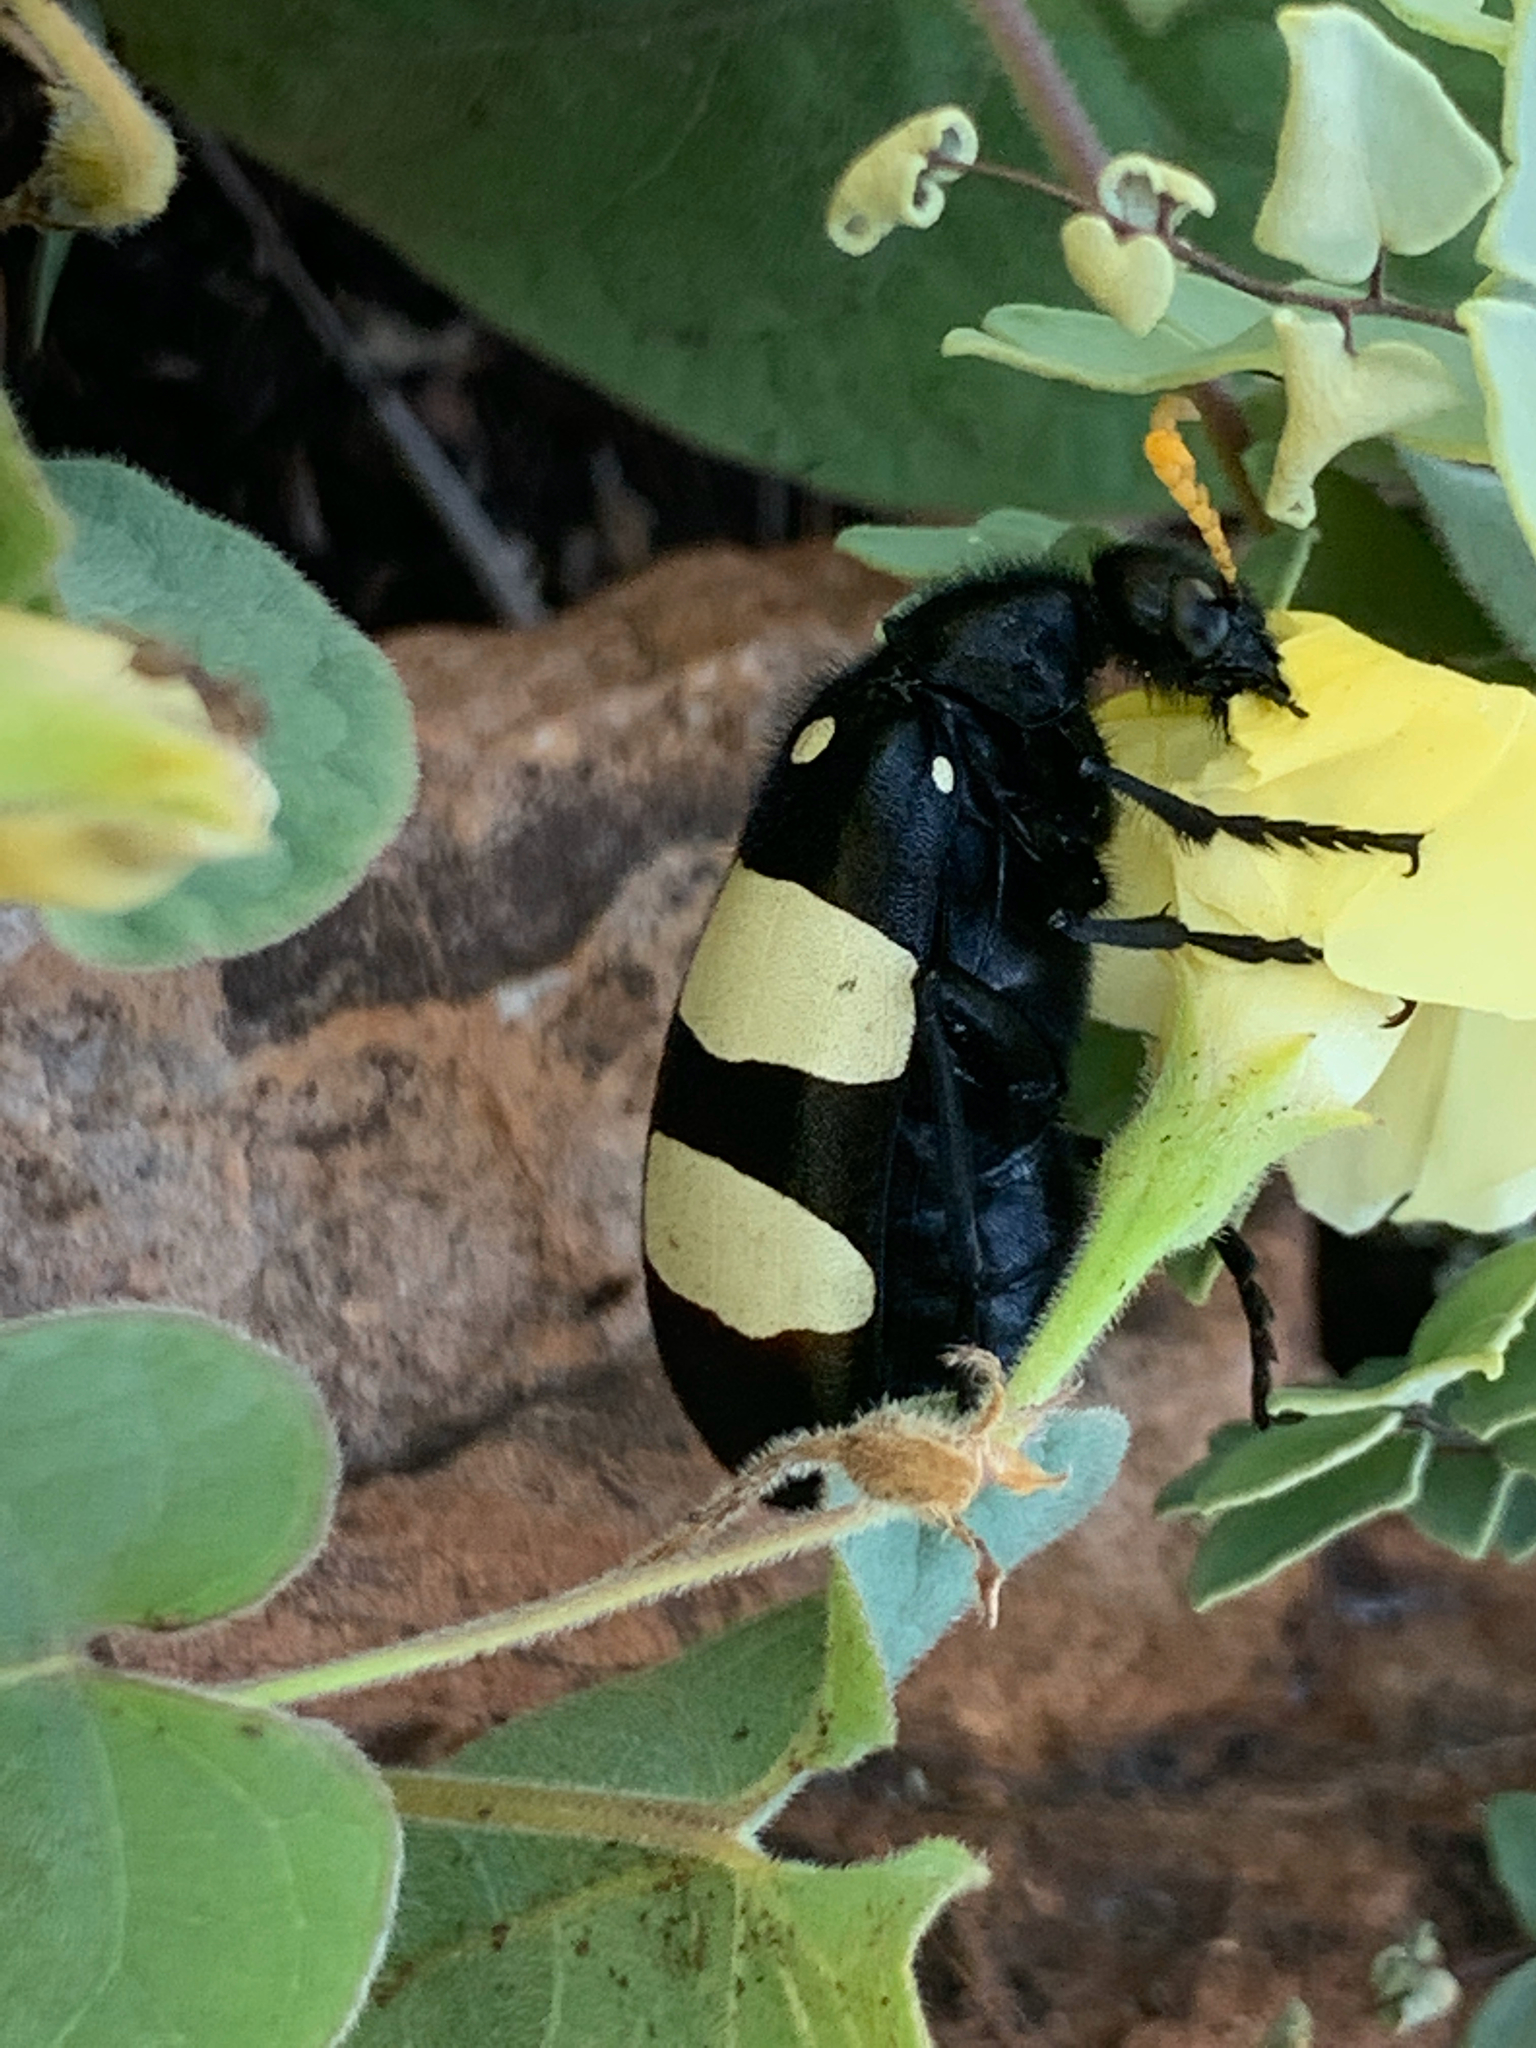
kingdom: Animalia
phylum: Arthropoda
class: Insecta
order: Coleoptera
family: Meloidae
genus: Hycleus
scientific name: Hycleus
